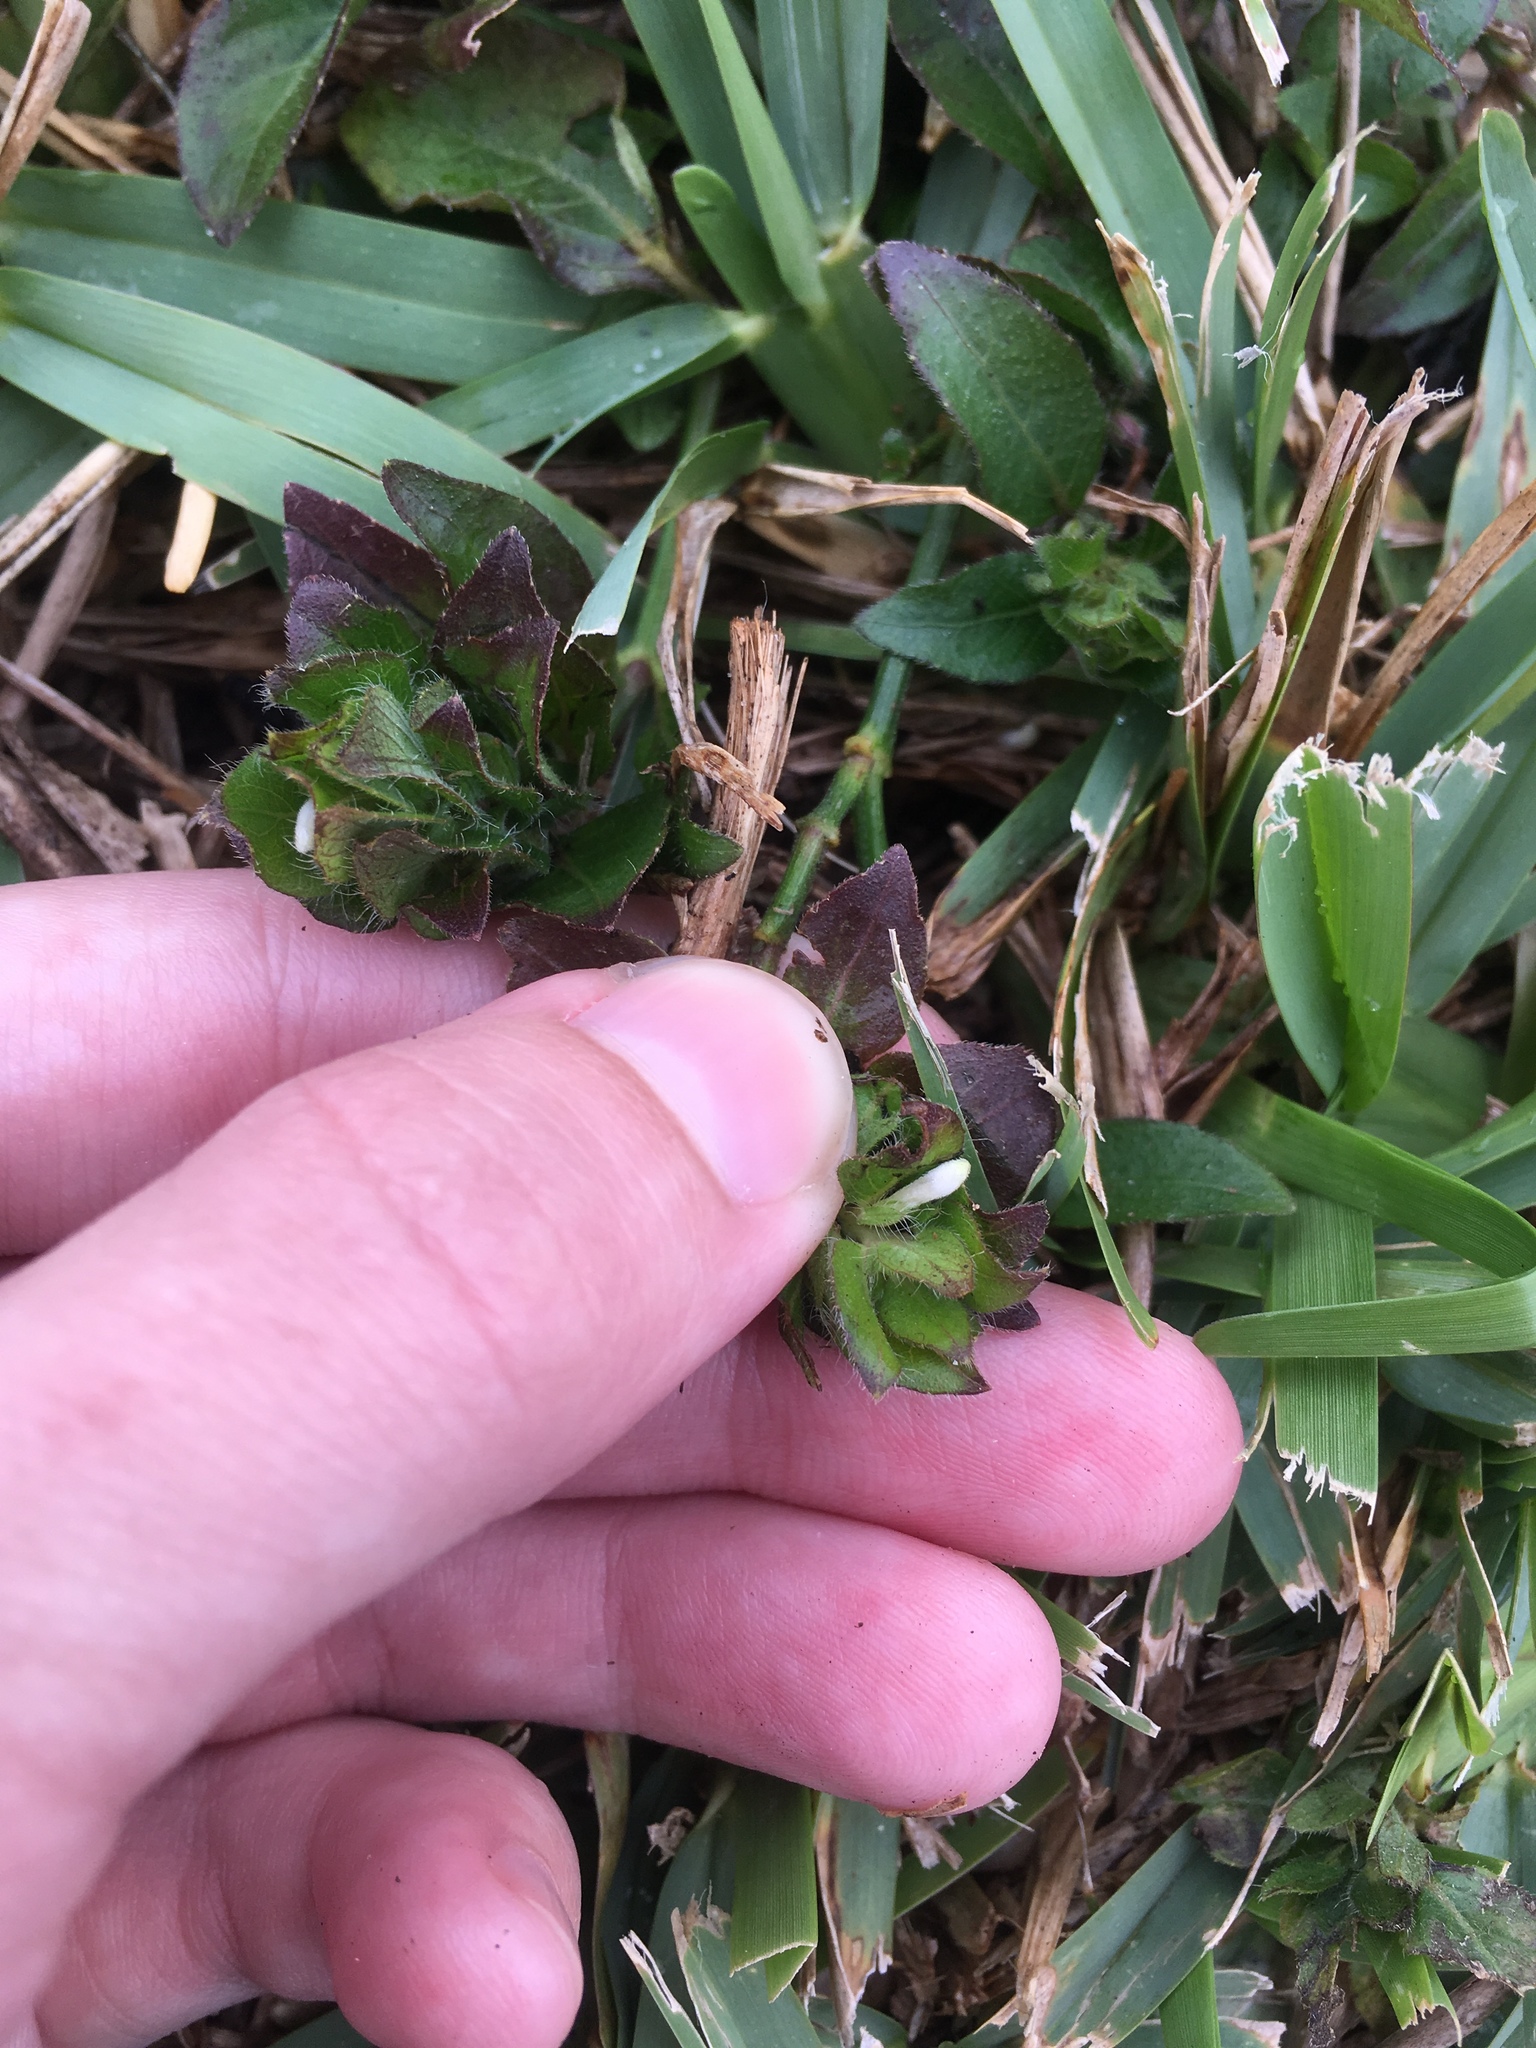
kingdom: Plantae
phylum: Tracheophyta
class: Magnoliopsida
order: Lamiales
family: Acanthaceae
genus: Ruellia
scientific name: Ruellia blechum
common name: Browne's blechum
